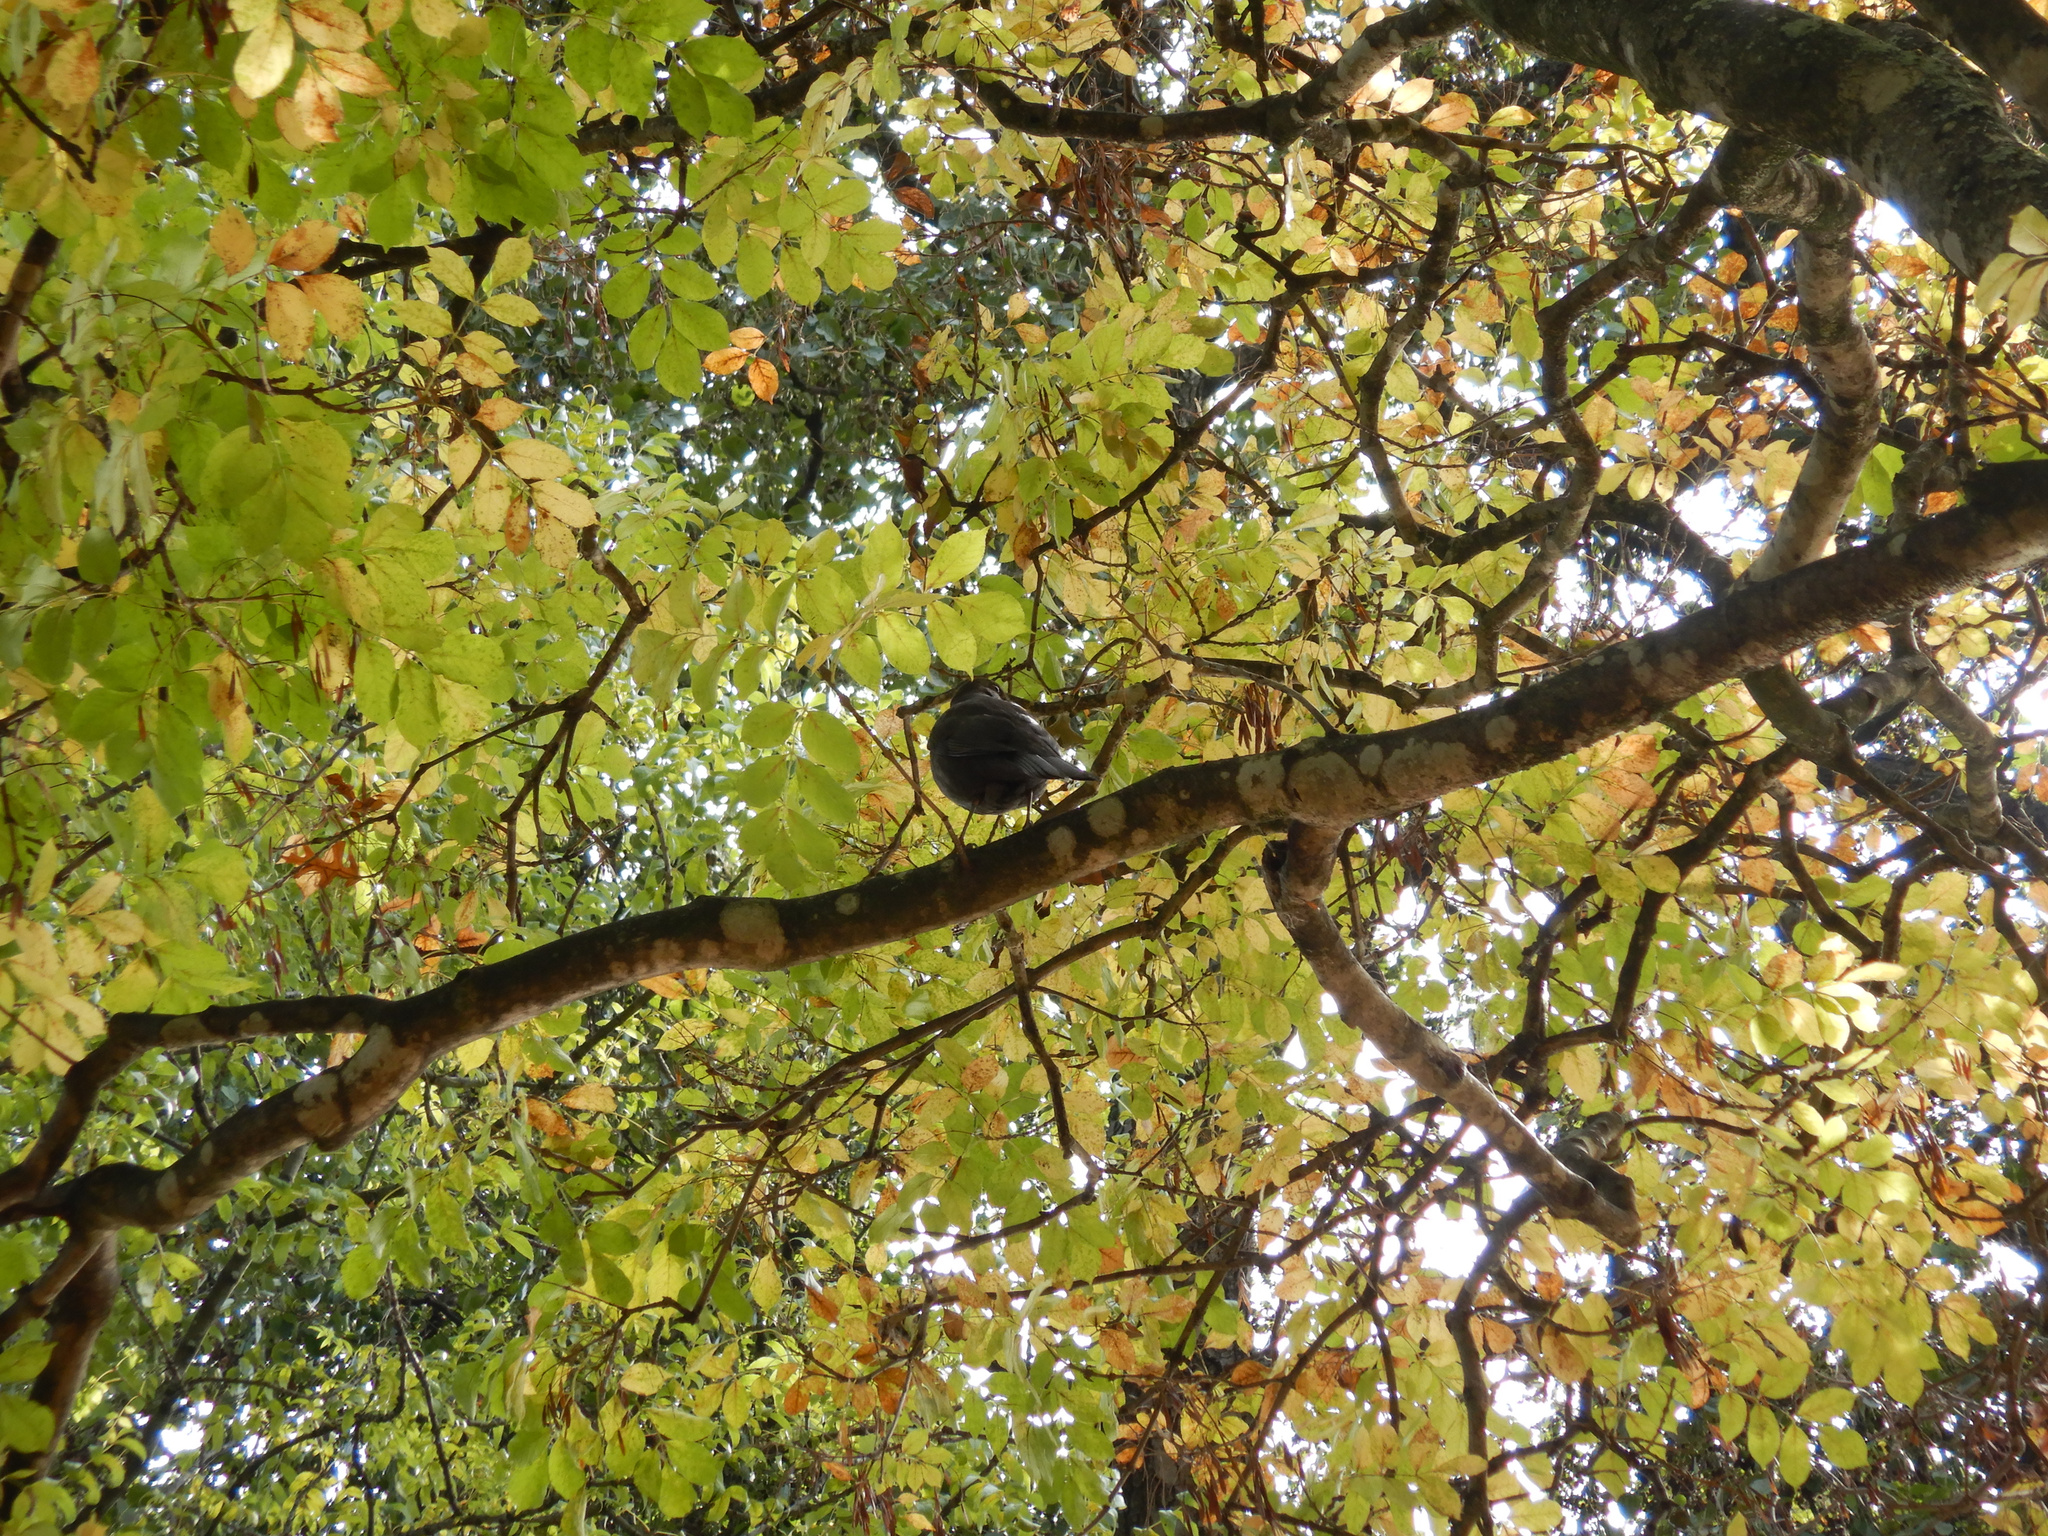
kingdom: Animalia
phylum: Chordata
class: Aves
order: Passeriformes
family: Turdidae
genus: Turdus
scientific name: Turdus merula
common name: Common blackbird
